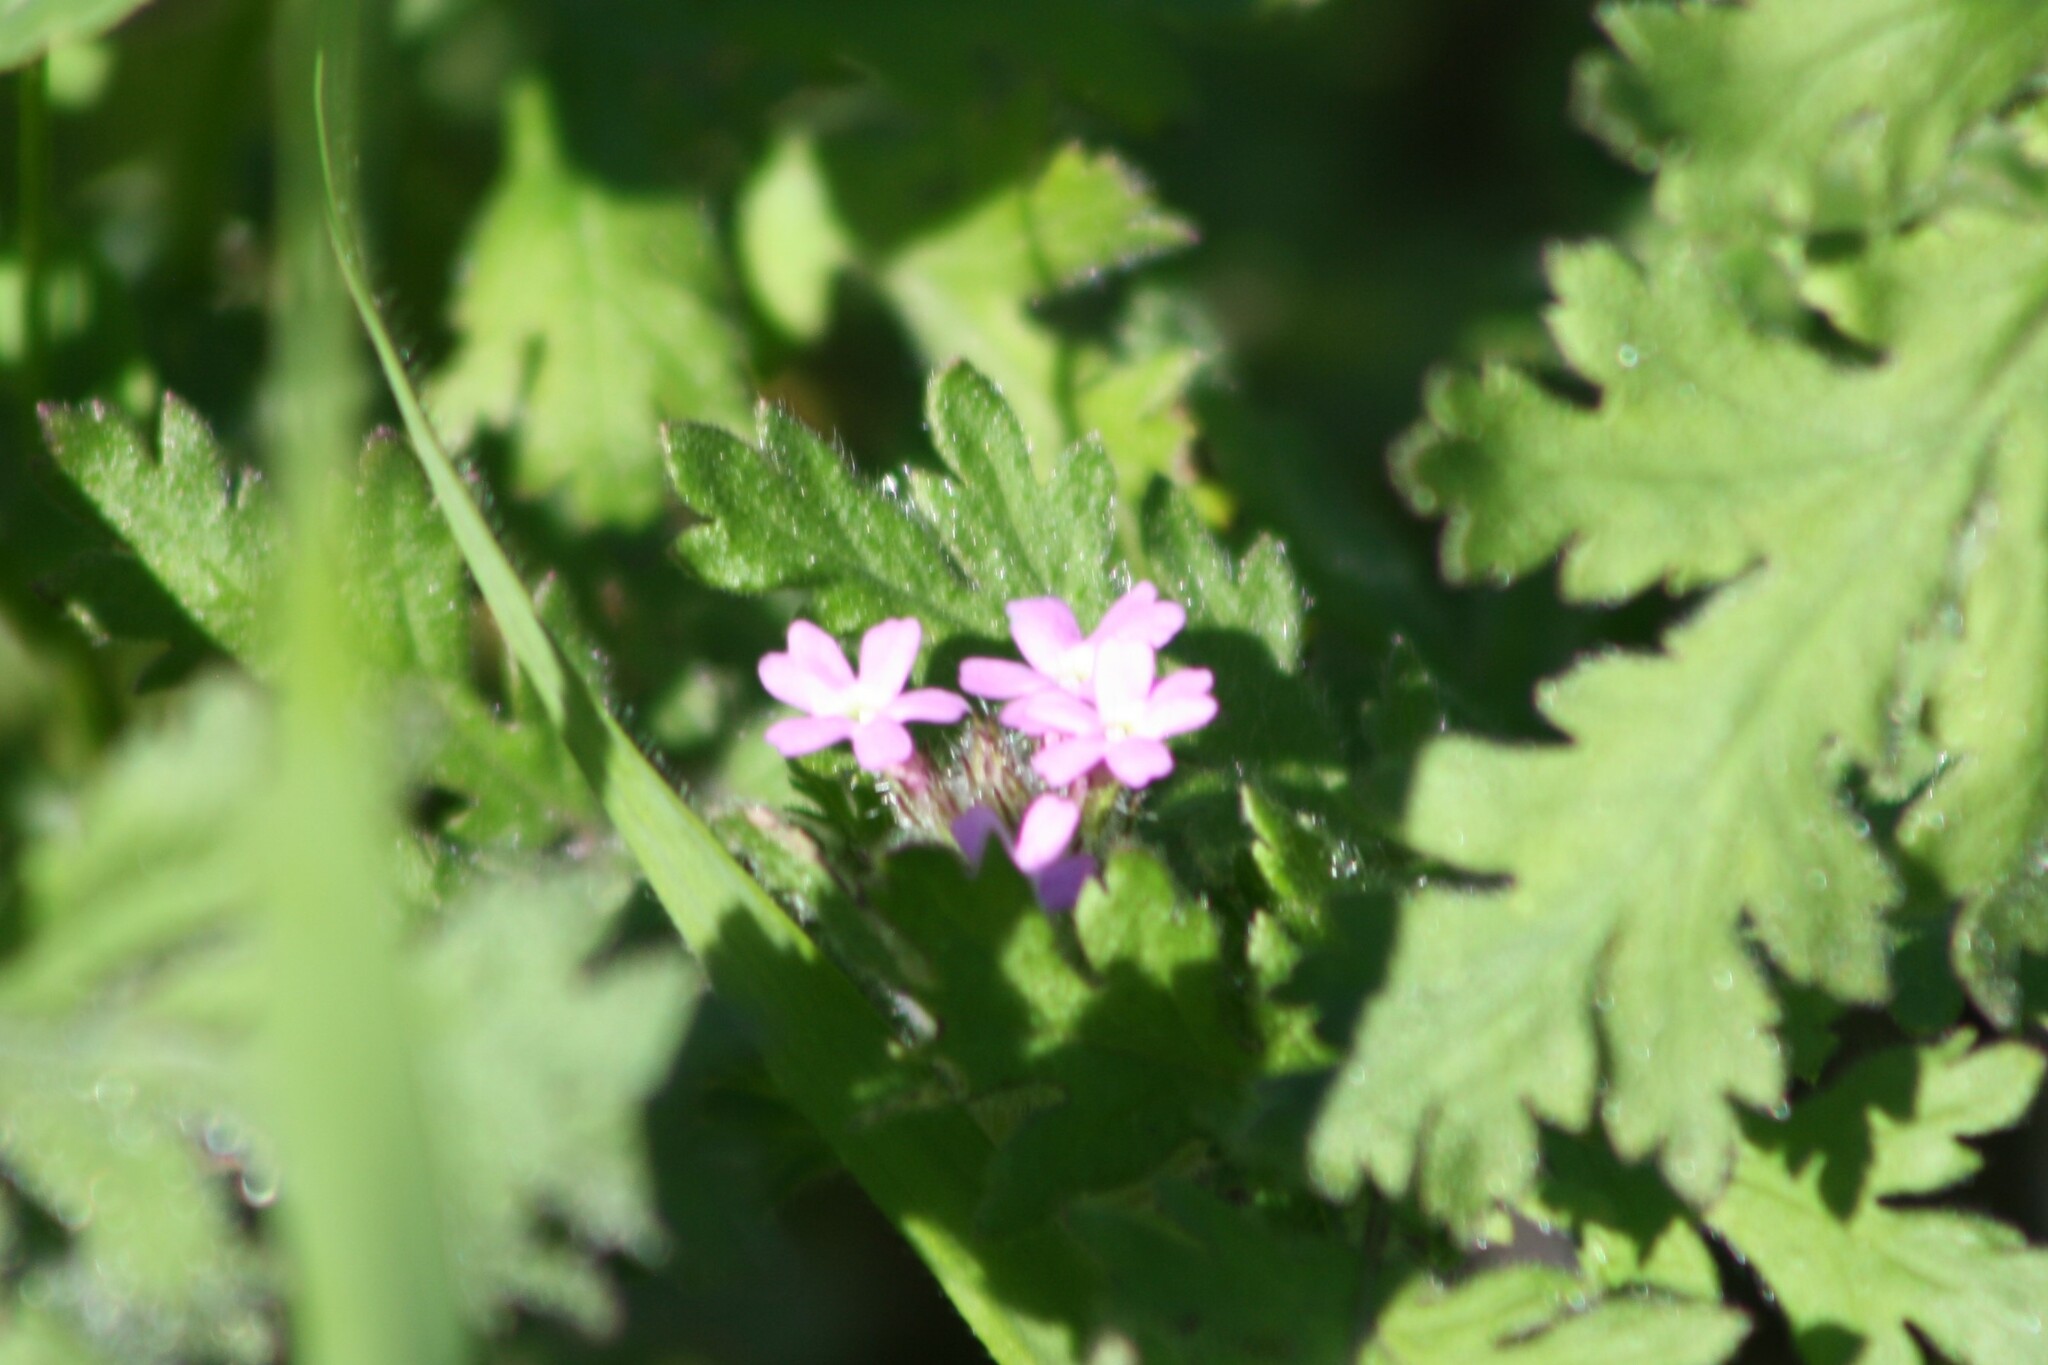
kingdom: Plantae
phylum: Tracheophyta
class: Magnoliopsida
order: Lamiales
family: Verbenaceae
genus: Verbena
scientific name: Verbena pumila
